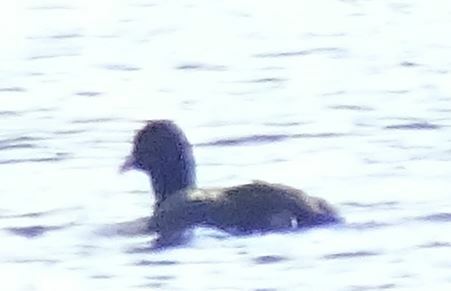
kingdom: Animalia
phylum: Chordata
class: Aves
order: Gruiformes
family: Rallidae
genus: Fulica
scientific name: Fulica atra
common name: Eurasian coot
